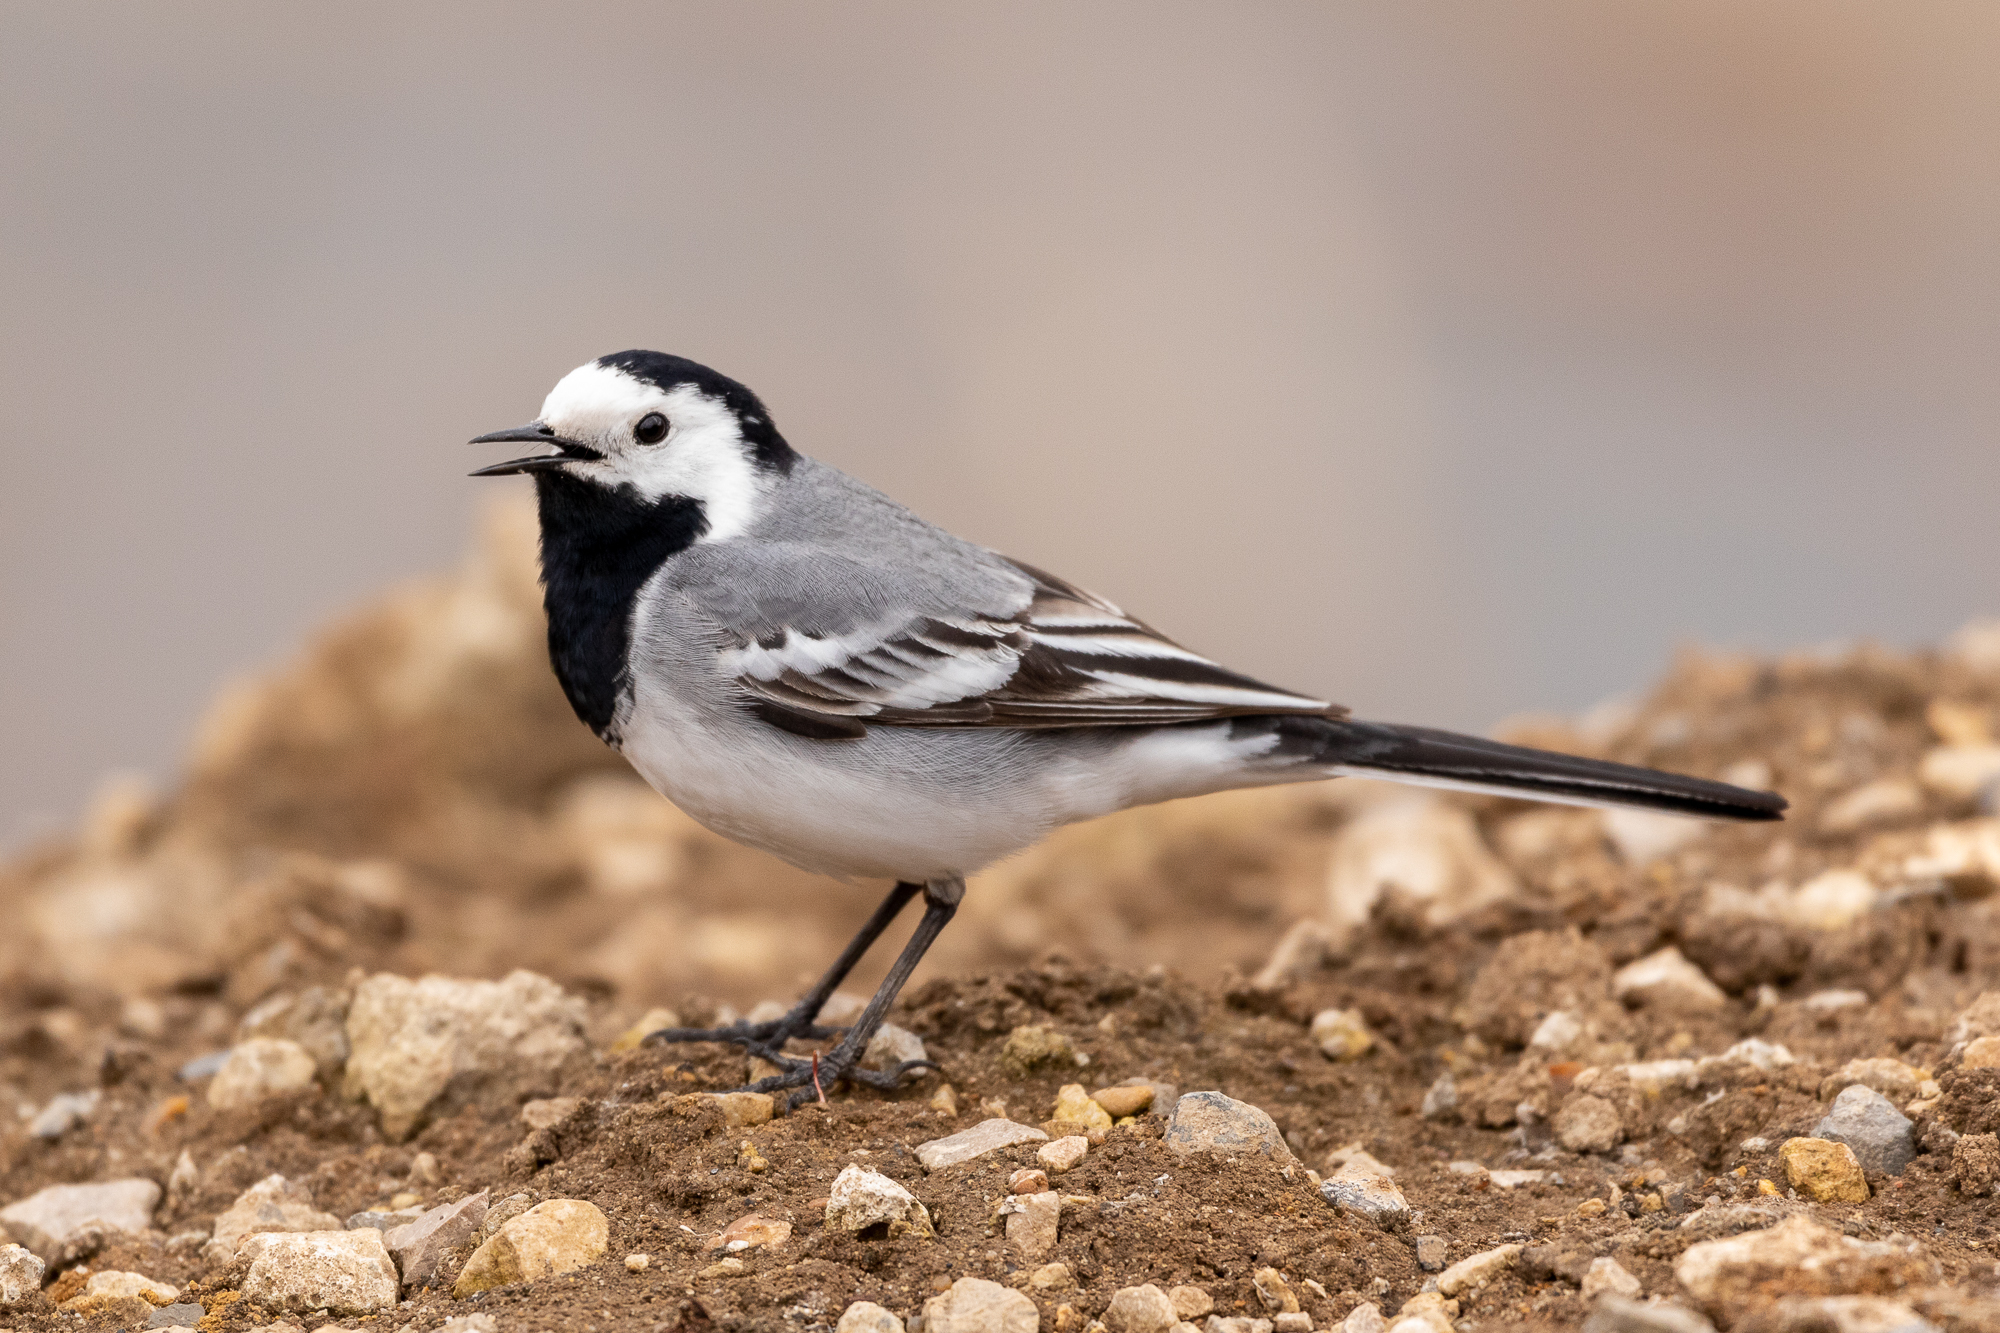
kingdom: Animalia
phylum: Chordata
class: Aves
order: Passeriformes
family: Motacillidae
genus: Motacilla
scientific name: Motacilla alba
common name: White wagtail
